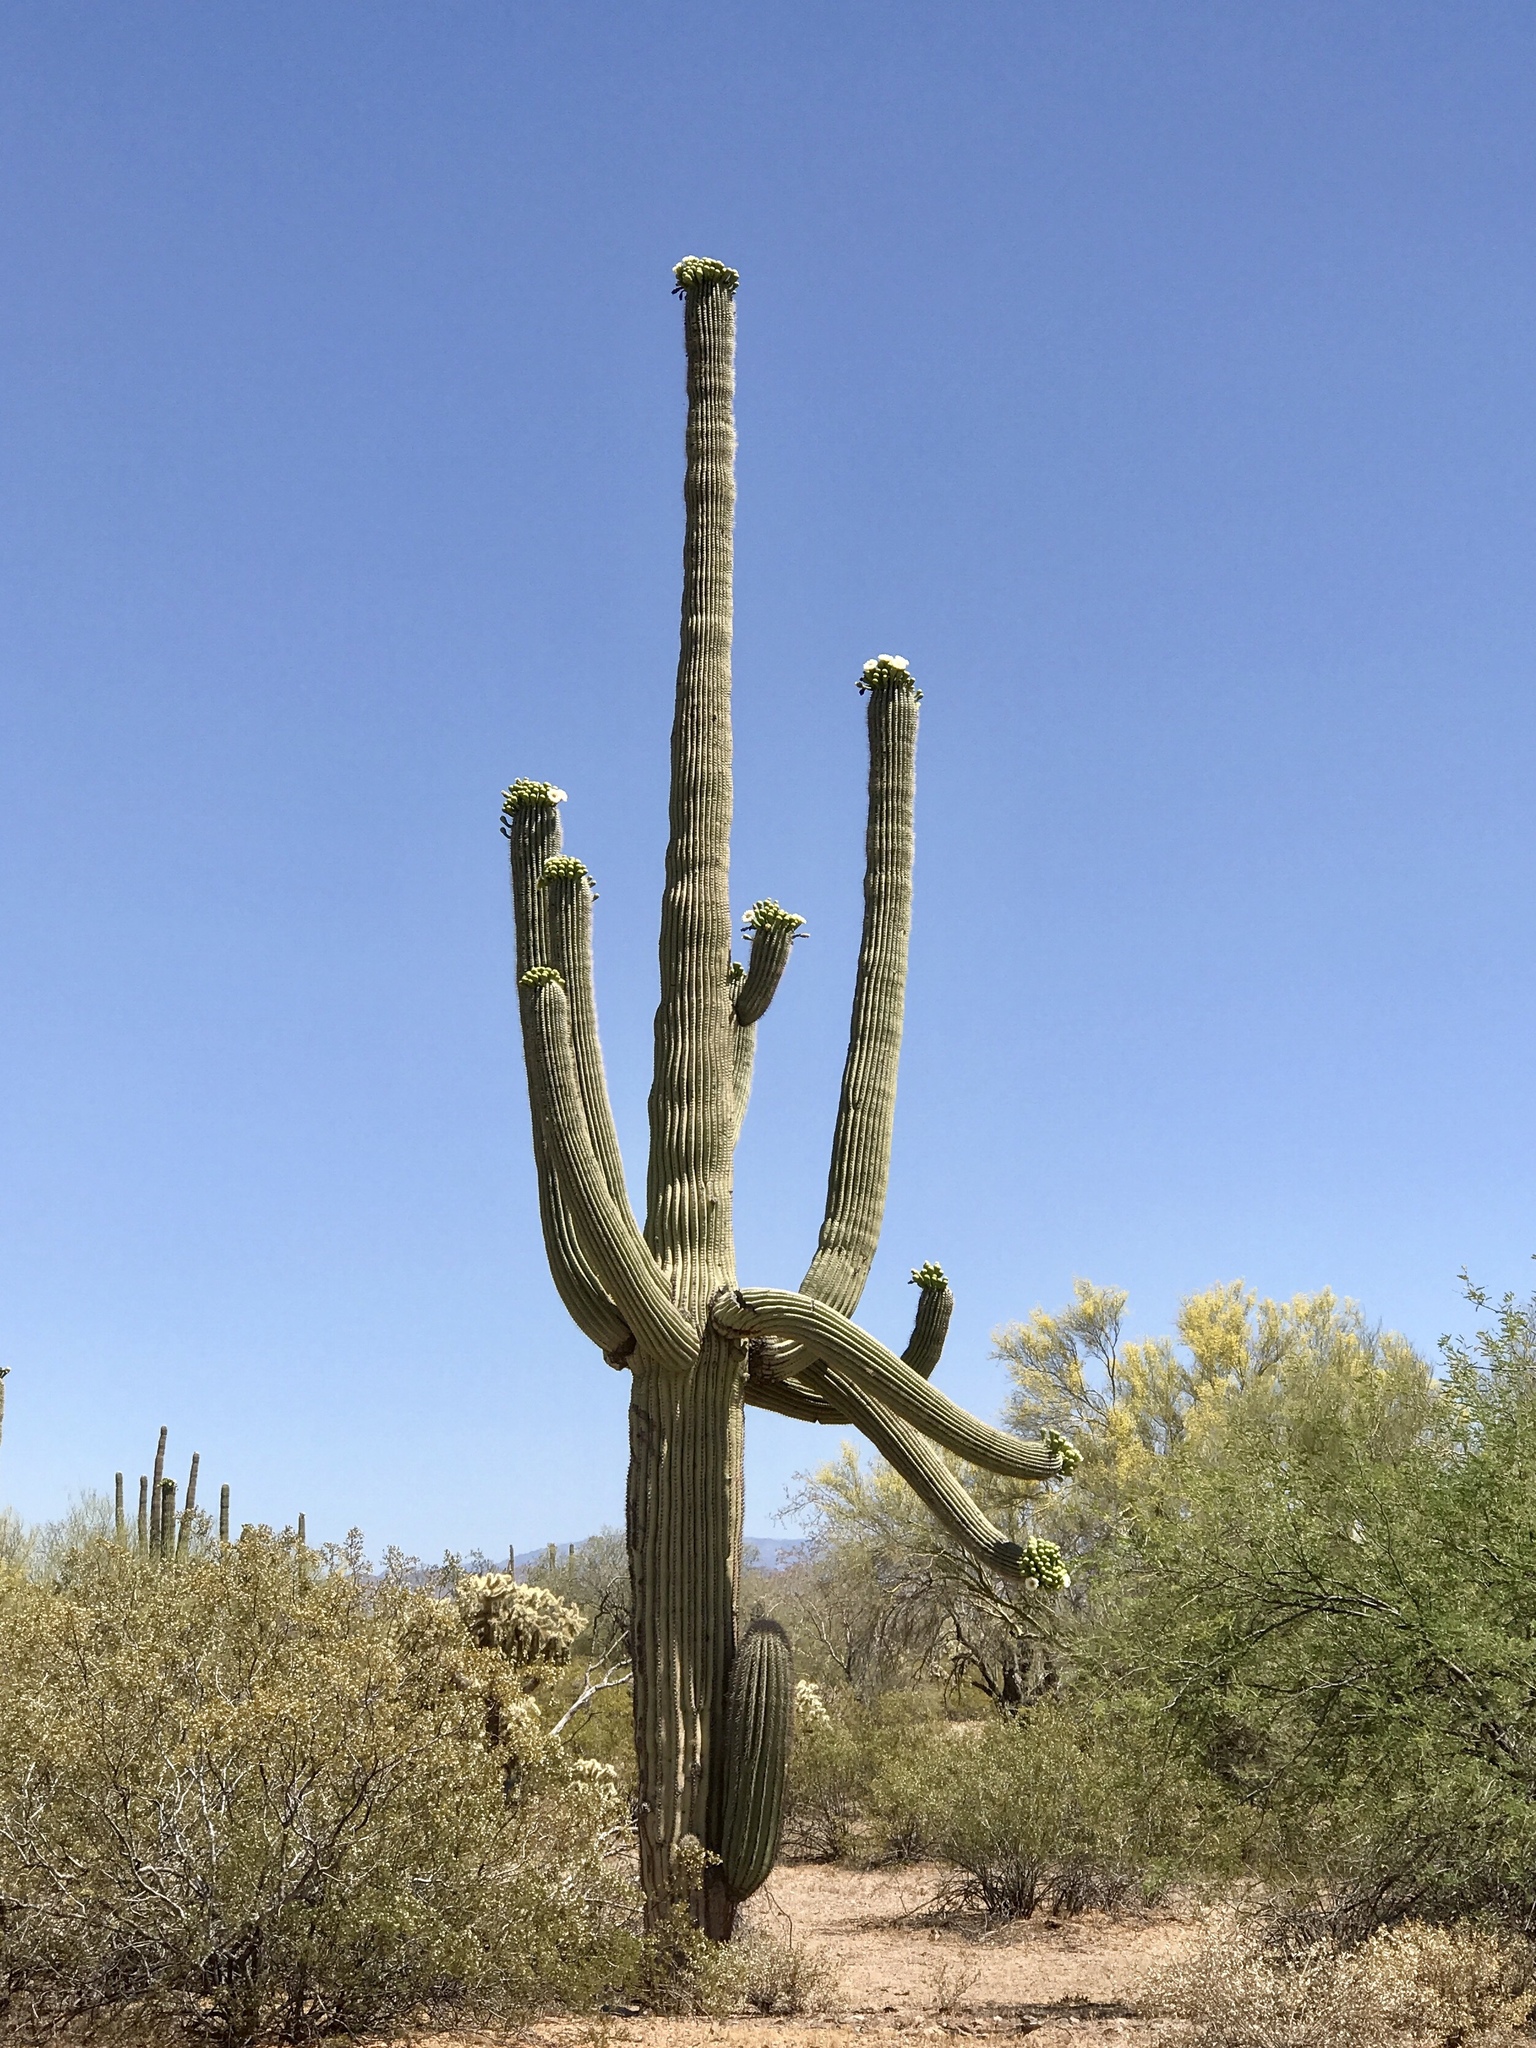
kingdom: Plantae
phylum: Tracheophyta
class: Magnoliopsida
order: Caryophyllales
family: Cactaceae
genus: Carnegiea
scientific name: Carnegiea gigantea
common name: Saguaro
